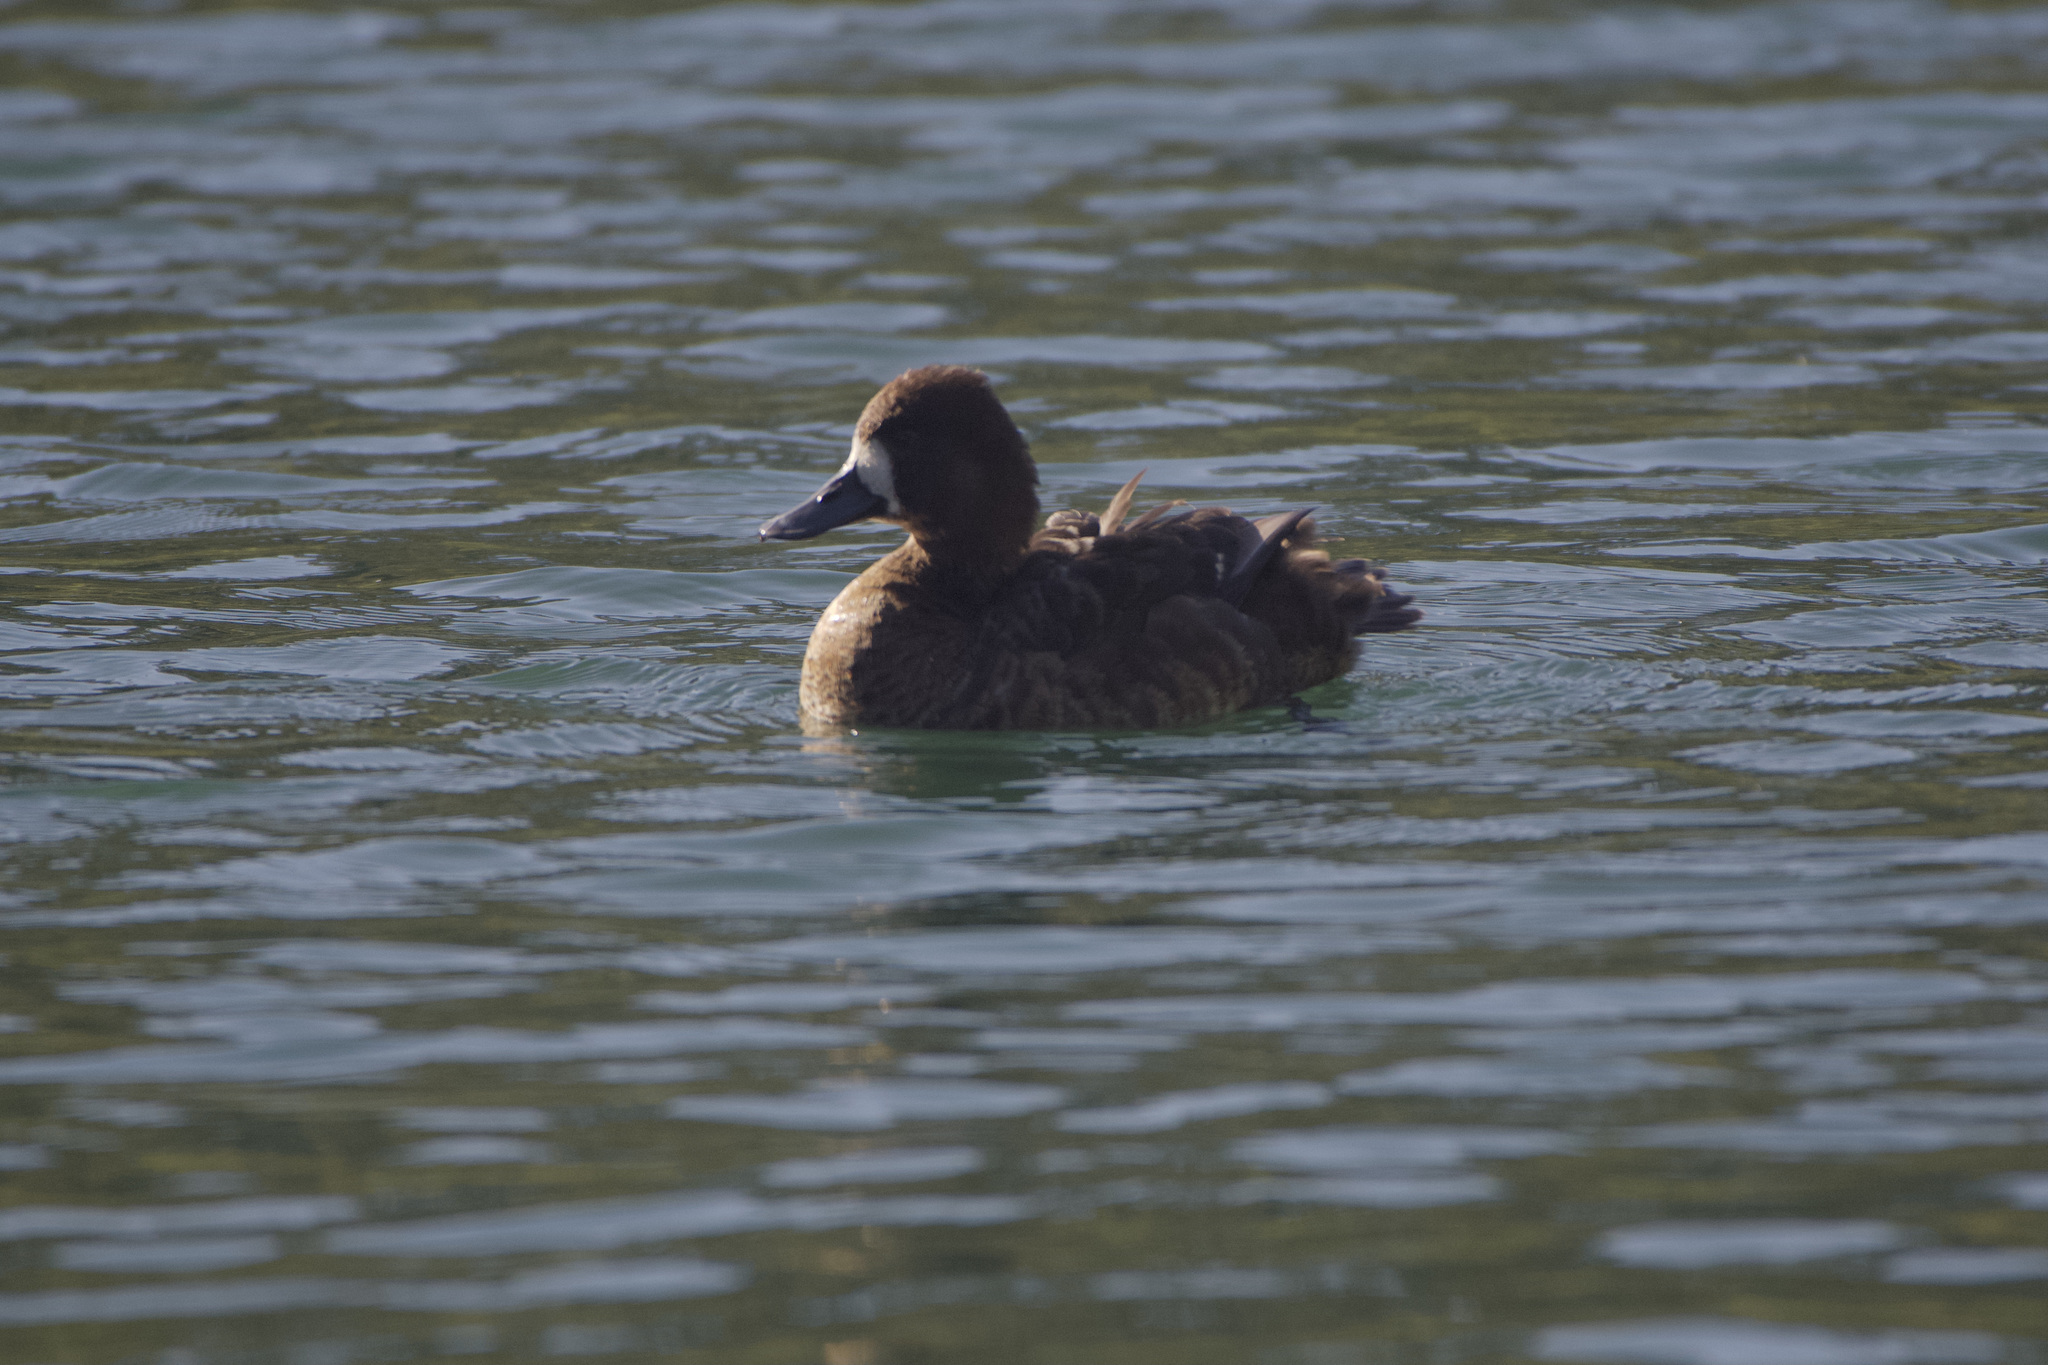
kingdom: Animalia
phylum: Chordata
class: Aves
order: Anseriformes
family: Anatidae
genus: Aythya
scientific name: Aythya affinis
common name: Lesser scaup
